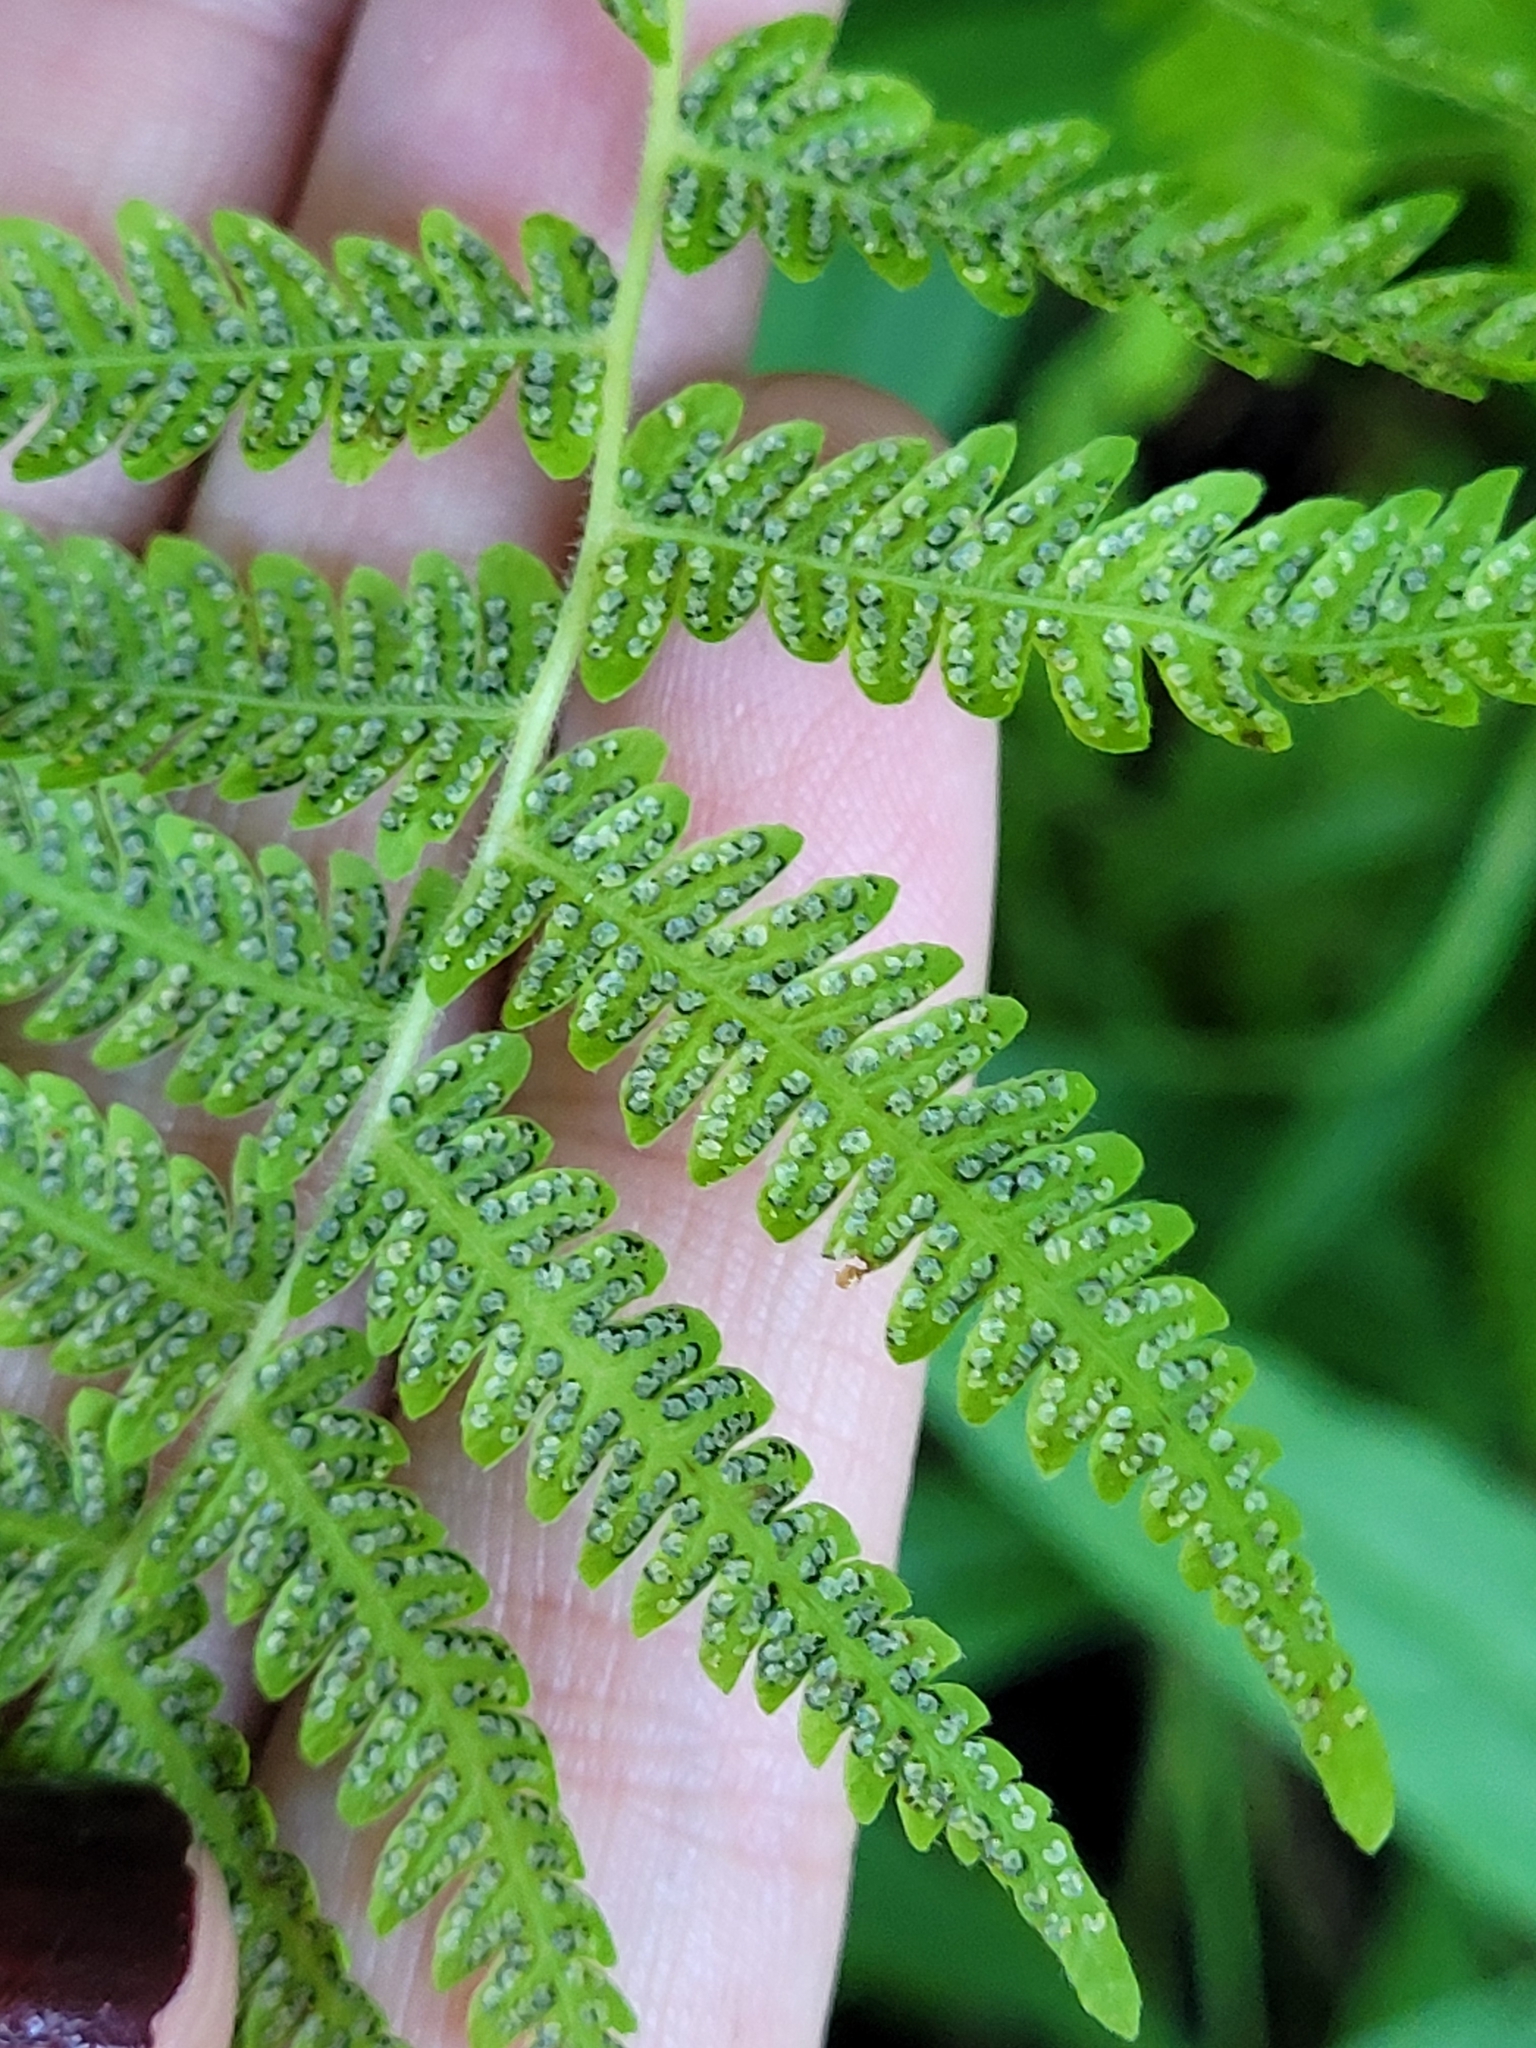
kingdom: Plantae
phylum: Tracheophyta
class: Polypodiopsida
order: Polypodiales
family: Thelypteridaceae
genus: Amauropelta
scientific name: Amauropelta noveboracensis
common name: New york fern
